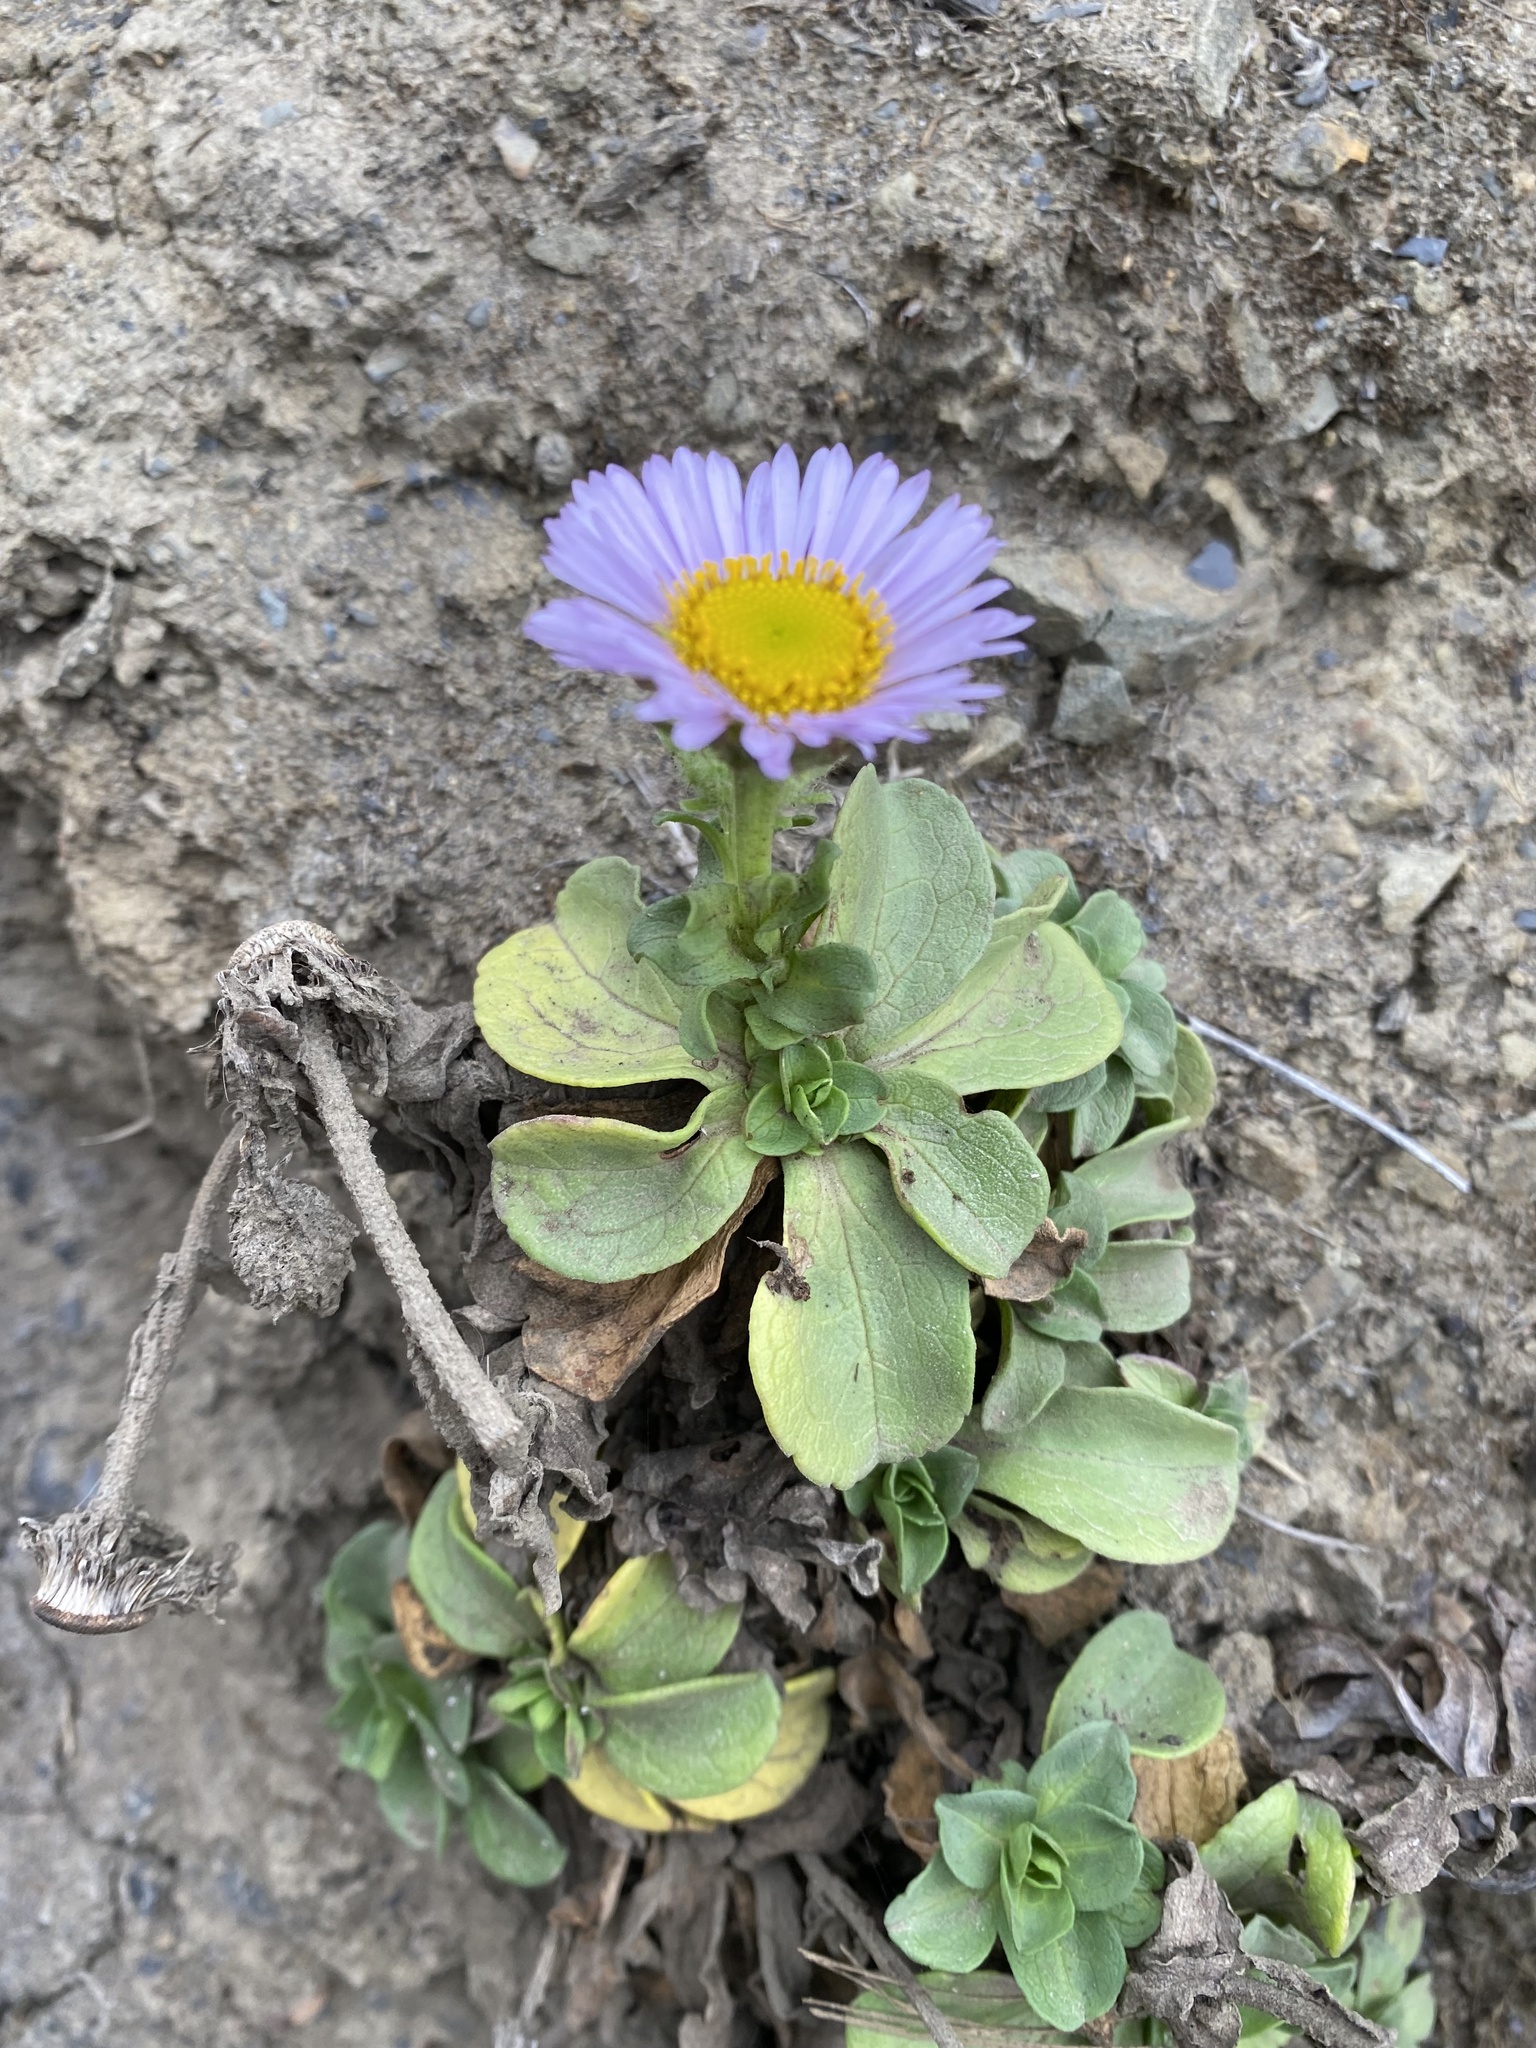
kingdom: Plantae
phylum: Tracheophyta
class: Magnoliopsida
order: Asterales
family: Asteraceae
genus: Erigeron
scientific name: Erigeron glaucus
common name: Seaside daisy
